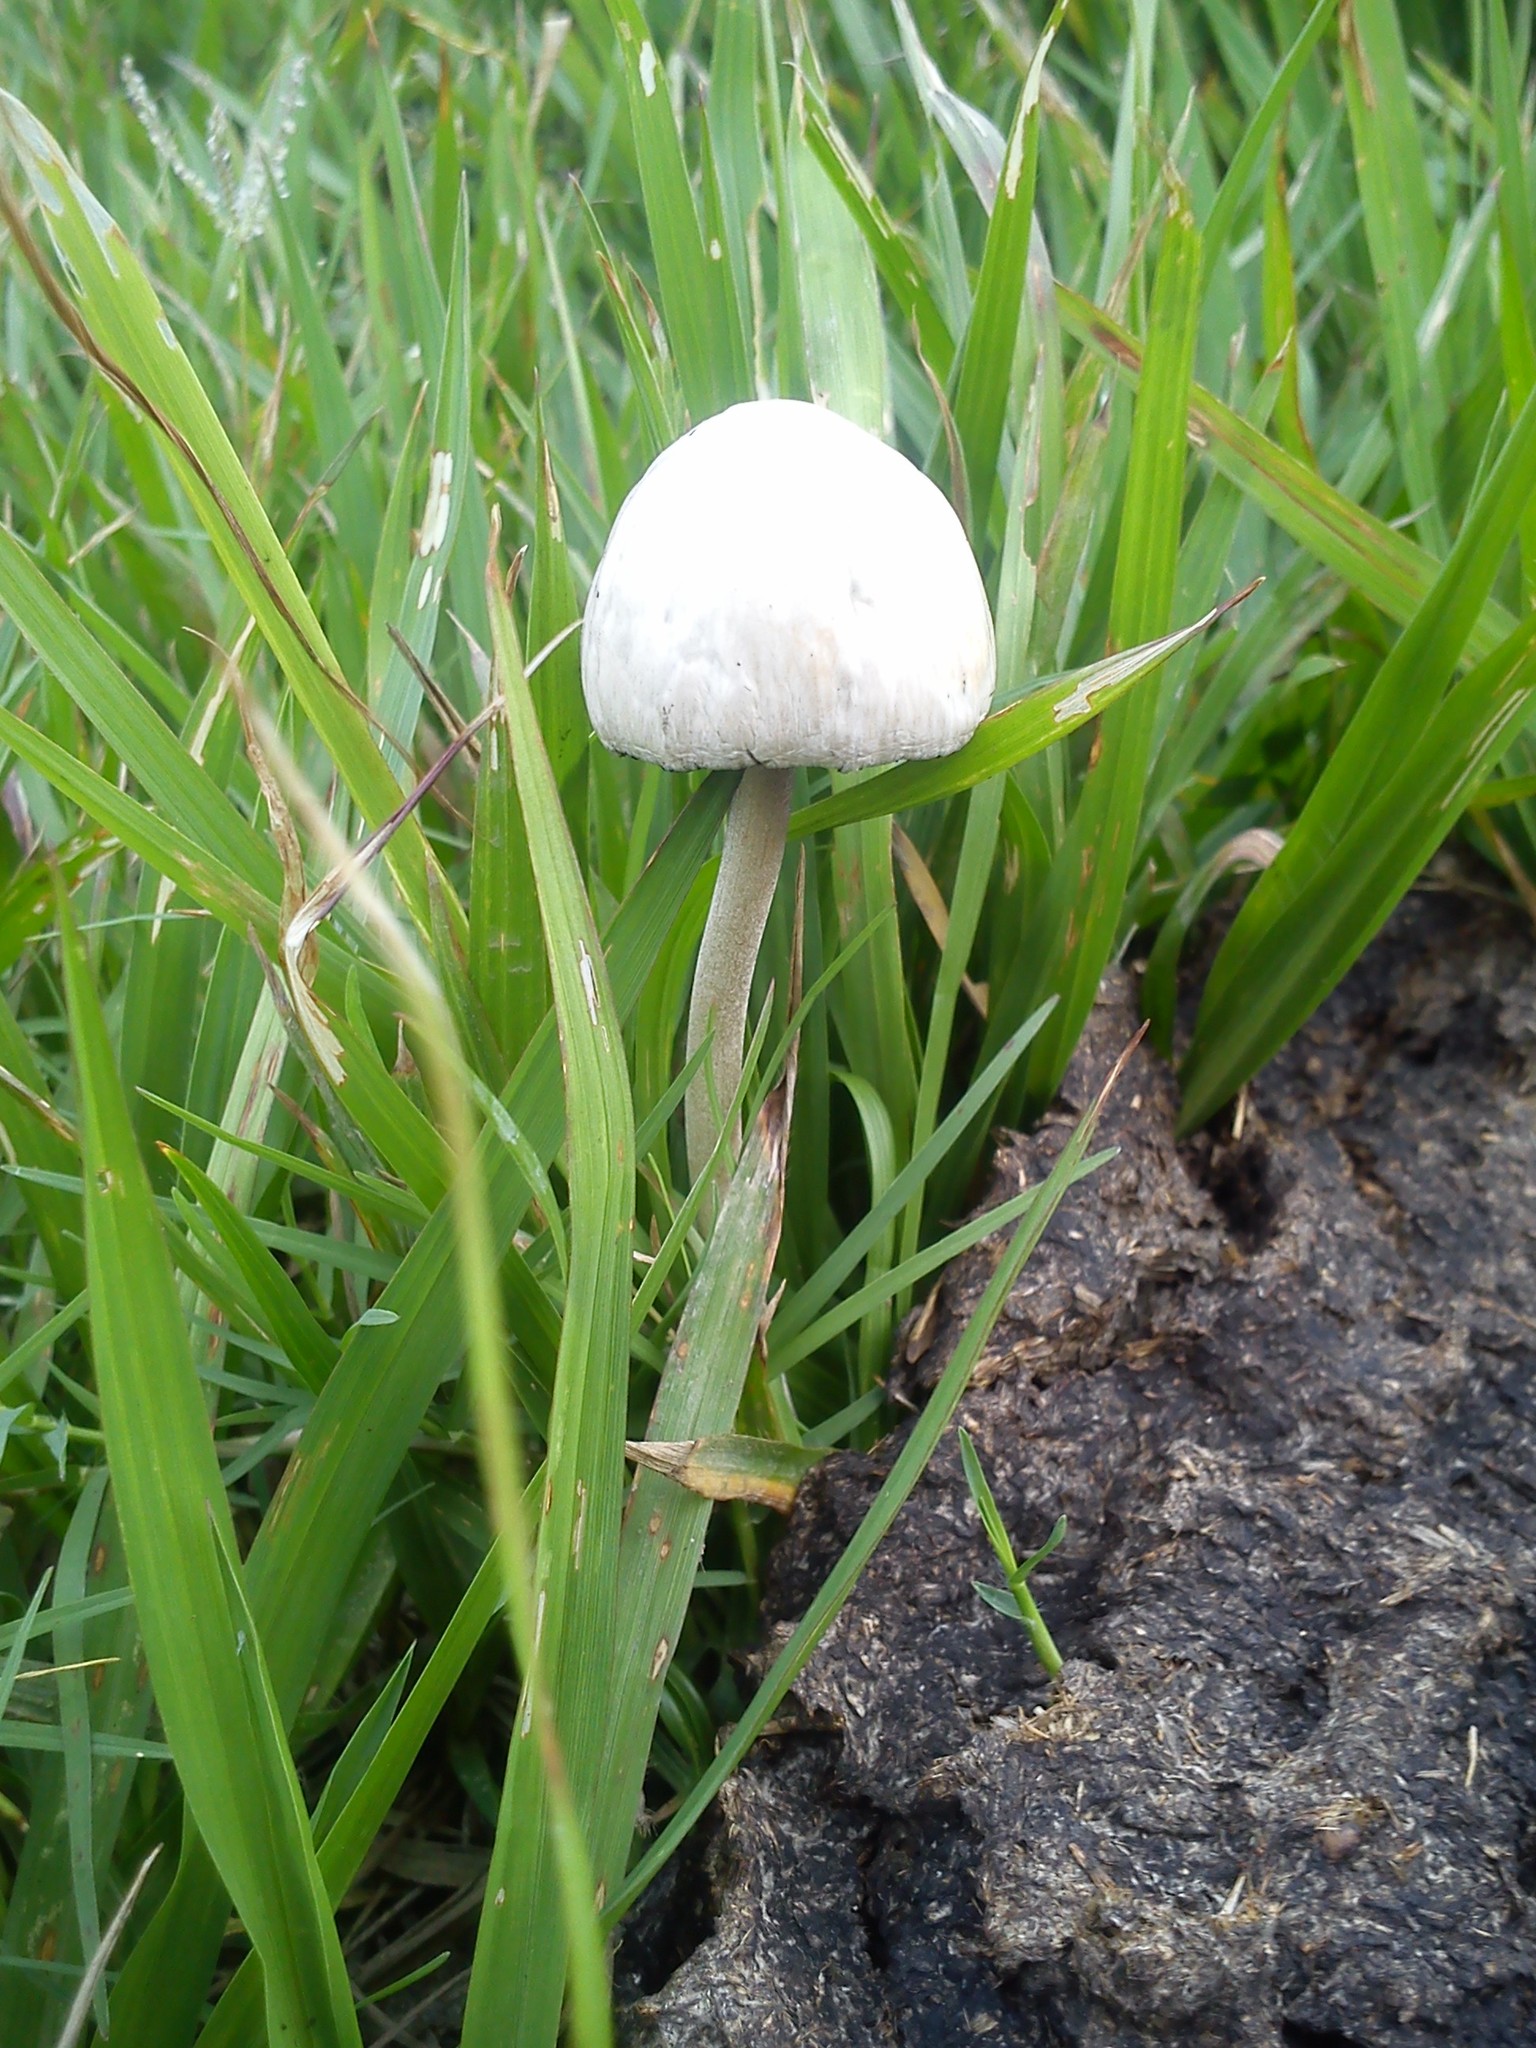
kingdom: Fungi
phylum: Basidiomycota
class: Agaricomycetes
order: Agaricales
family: Bolbitiaceae
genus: Panaeolus
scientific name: Panaeolus antillarum
